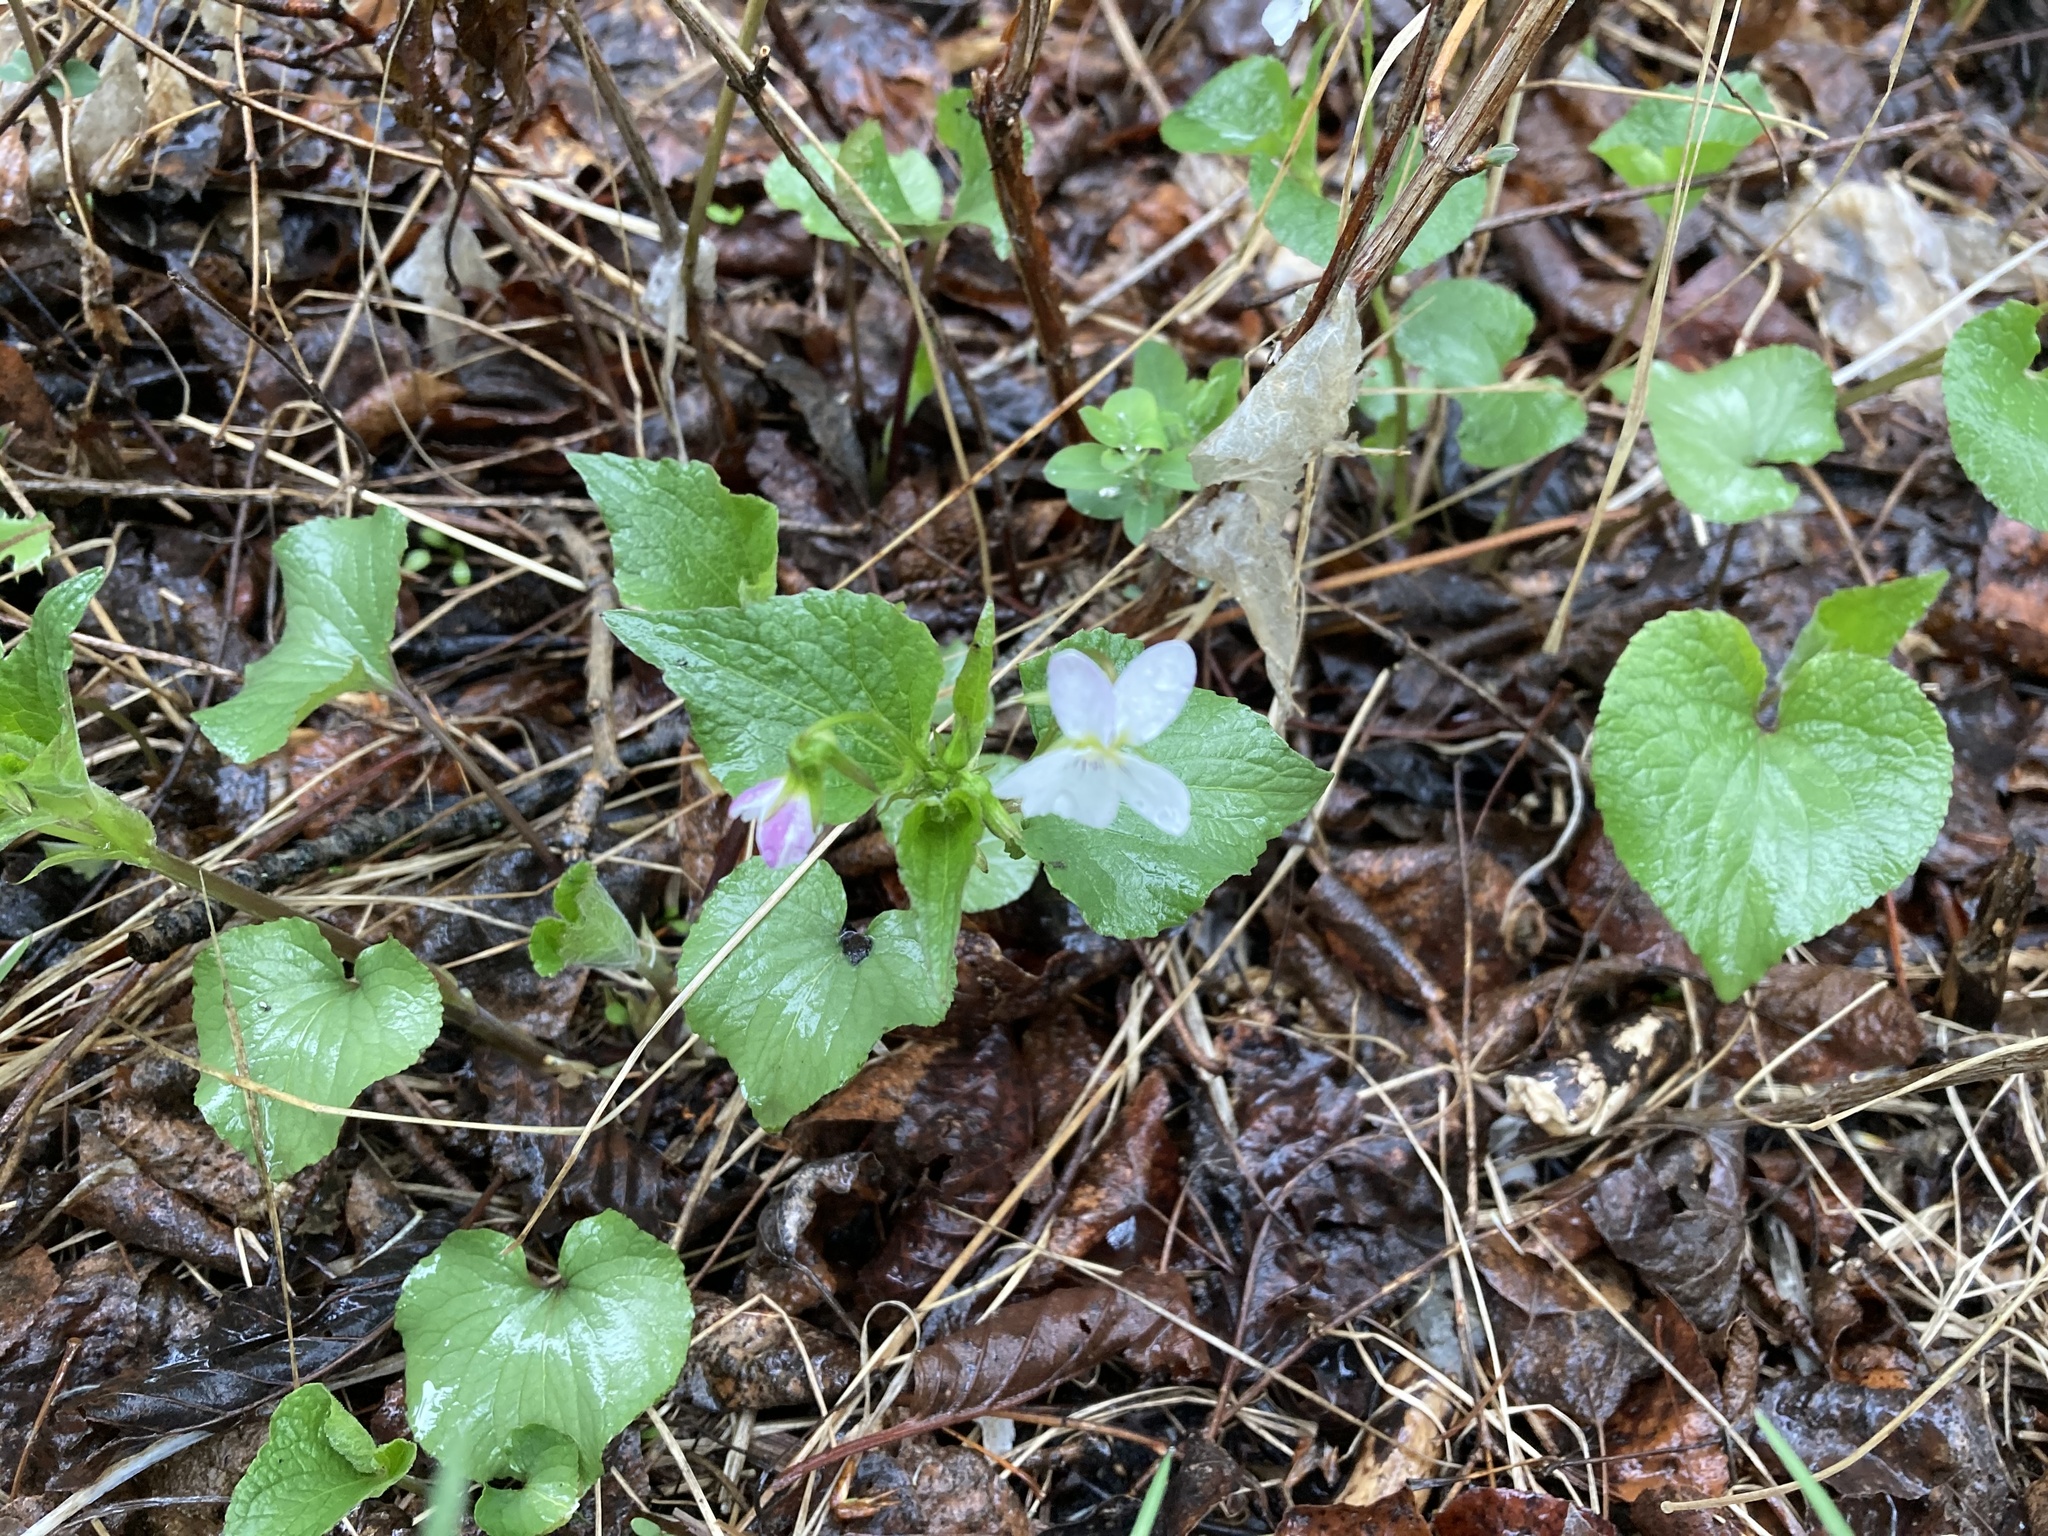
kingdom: Plantae
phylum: Tracheophyta
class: Magnoliopsida
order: Malpighiales
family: Violaceae
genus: Viola
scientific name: Viola canadensis
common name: Canada violet
